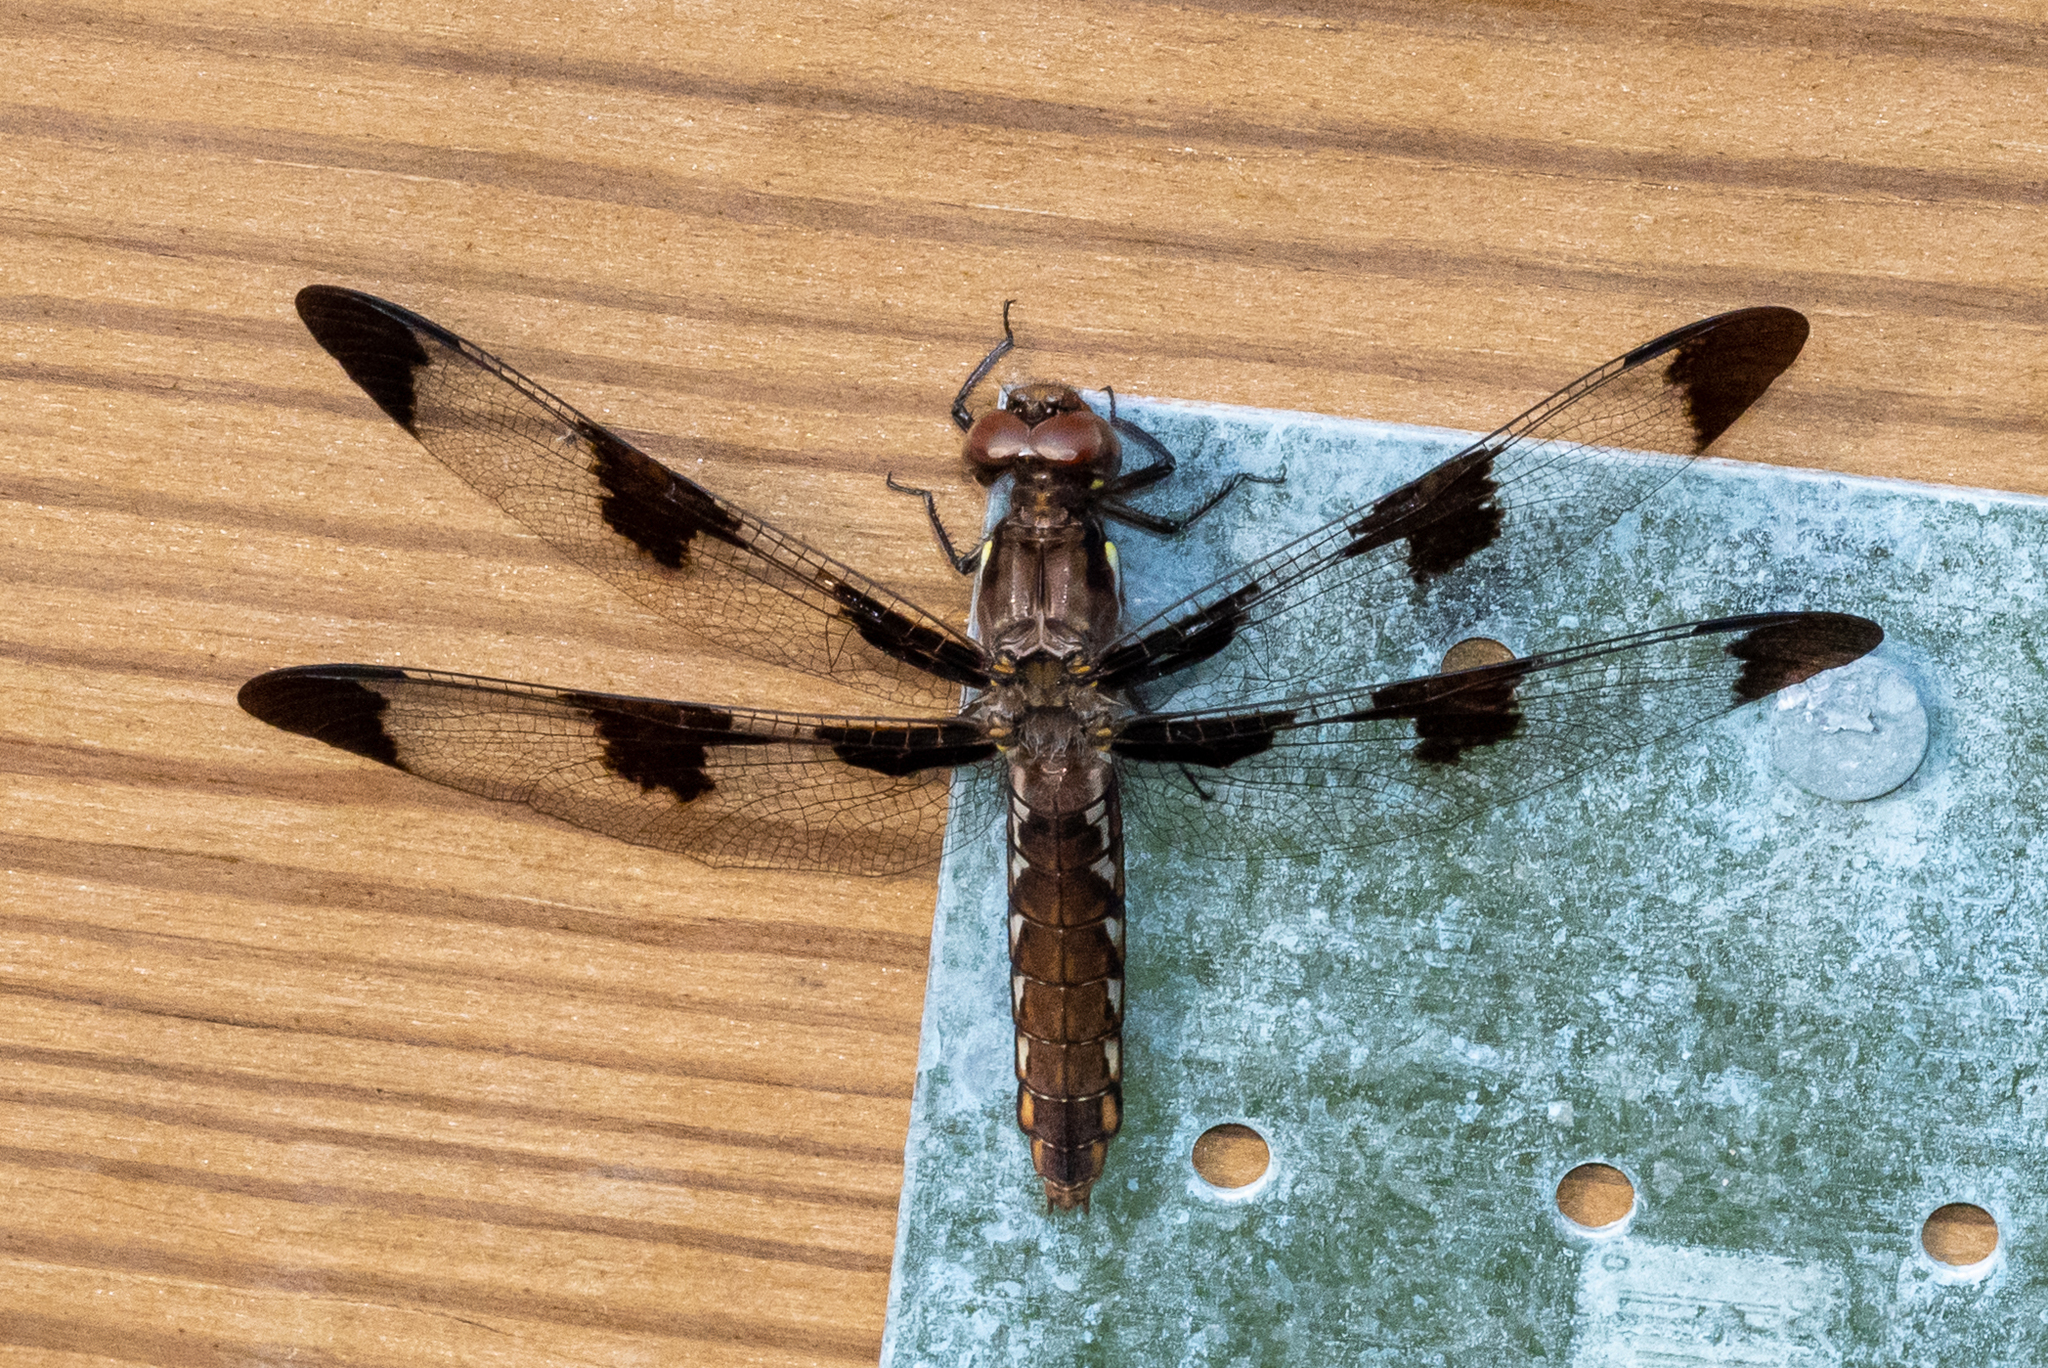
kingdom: Animalia
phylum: Arthropoda
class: Insecta
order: Odonata
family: Libellulidae
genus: Plathemis
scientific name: Plathemis lydia
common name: Common whitetail
